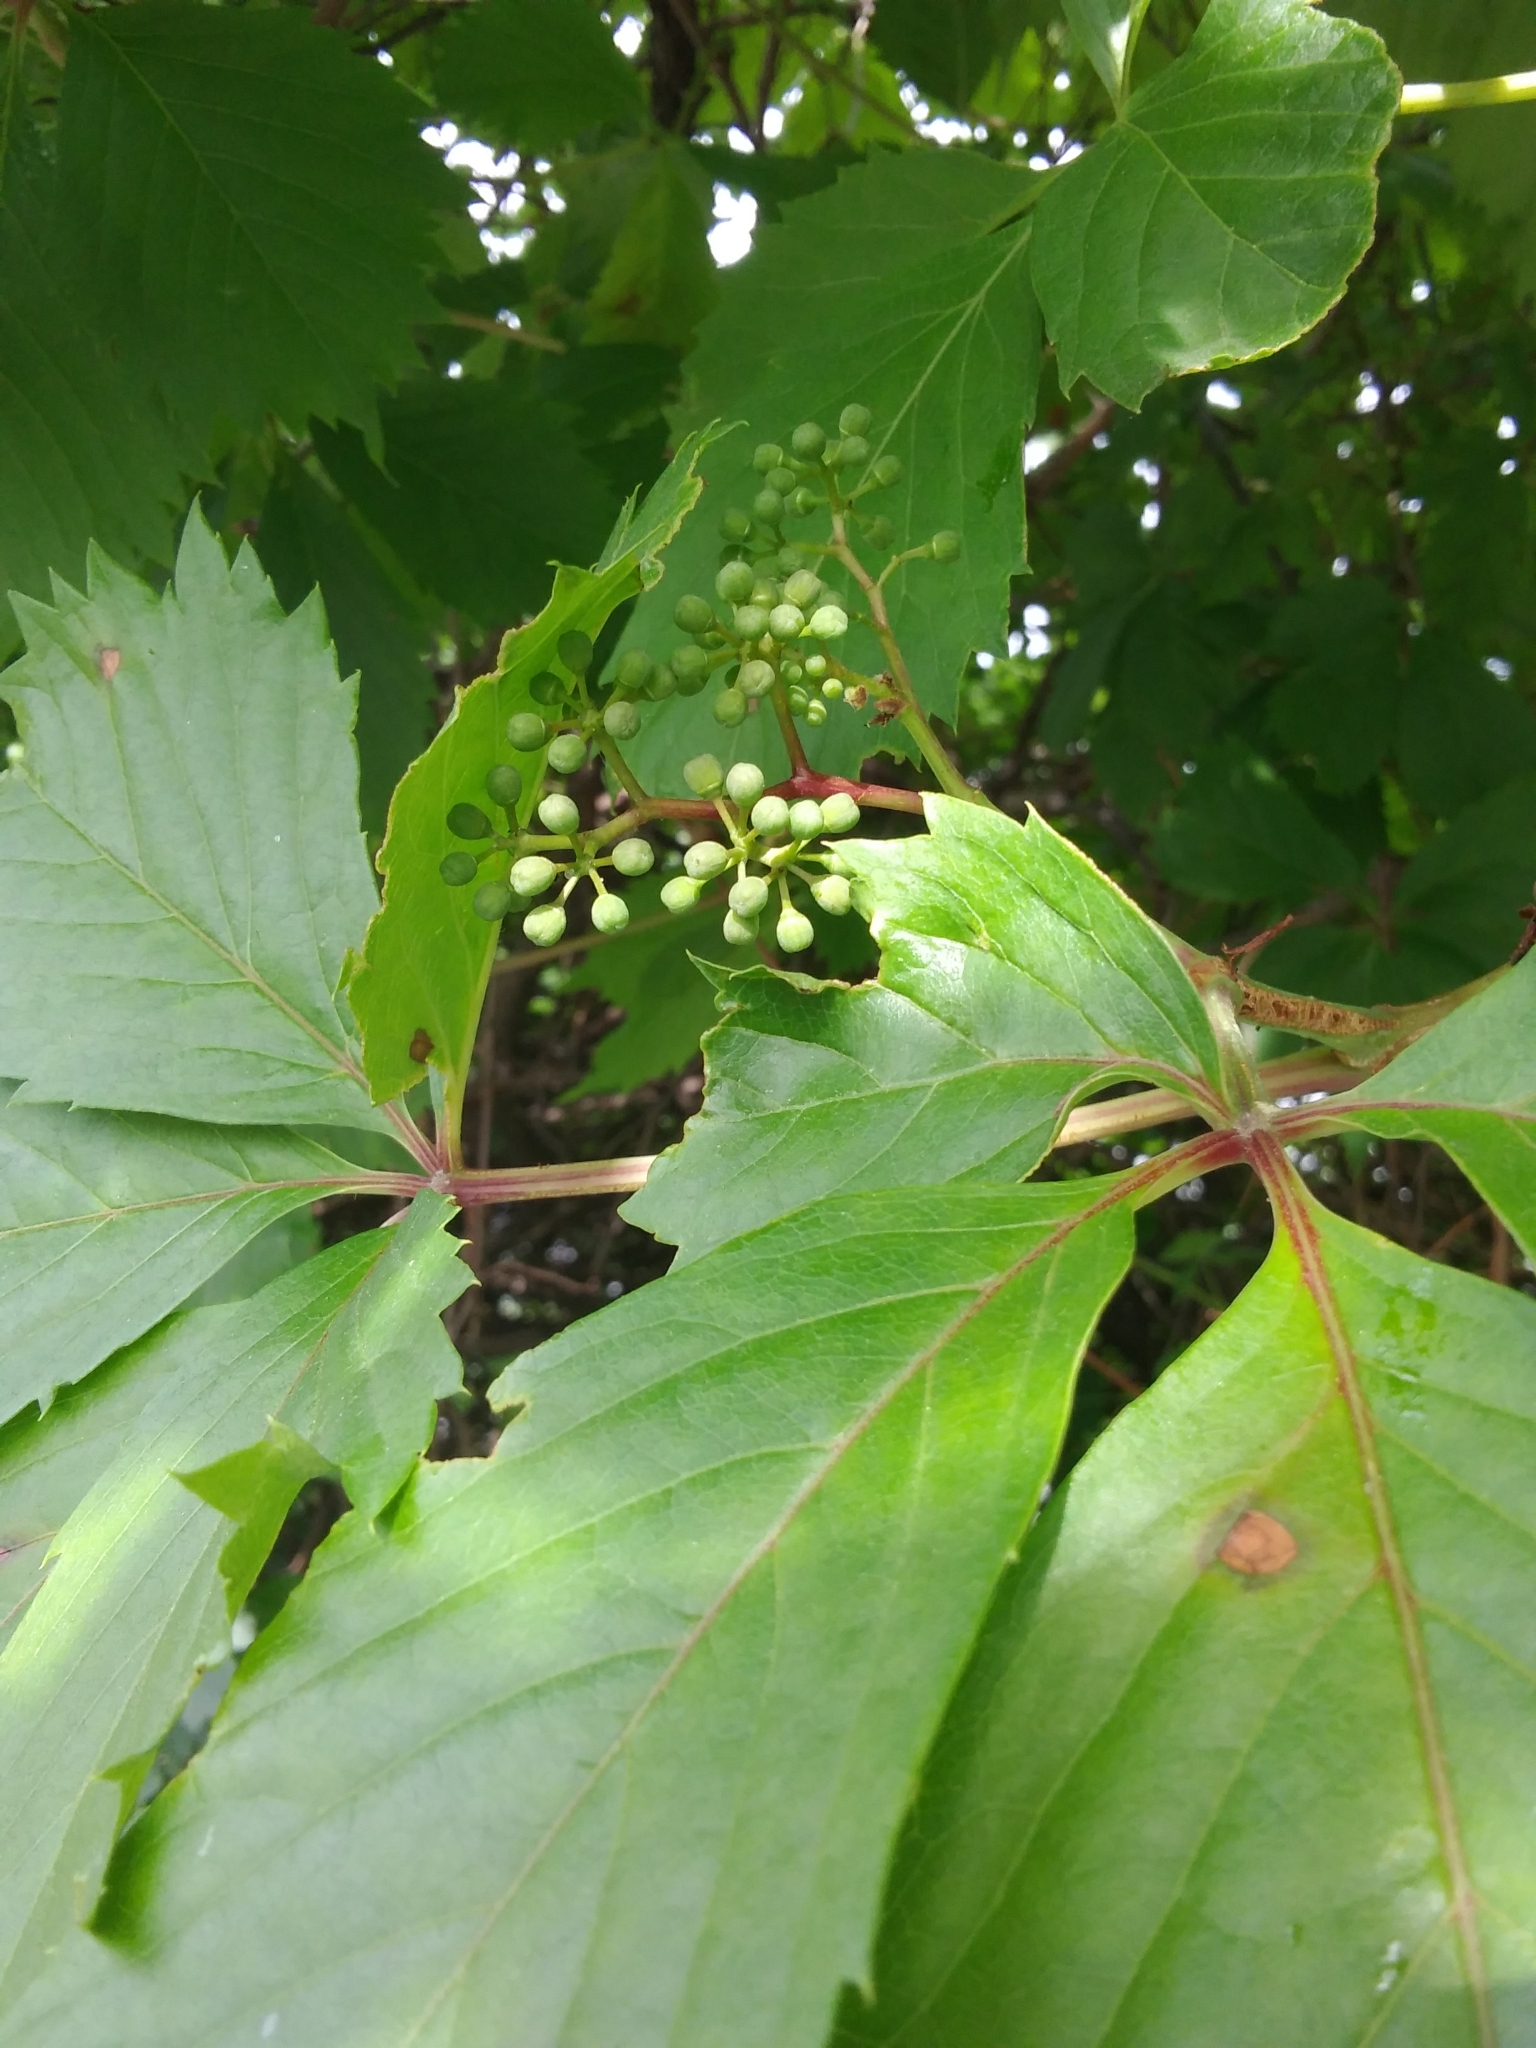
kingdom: Plantae
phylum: Tracheophyta
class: Magnoliopsida
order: Vitales
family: Vitaceae
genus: Parthenocissus
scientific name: Parthenocissus quinquefolia
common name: Virginia-creeper
